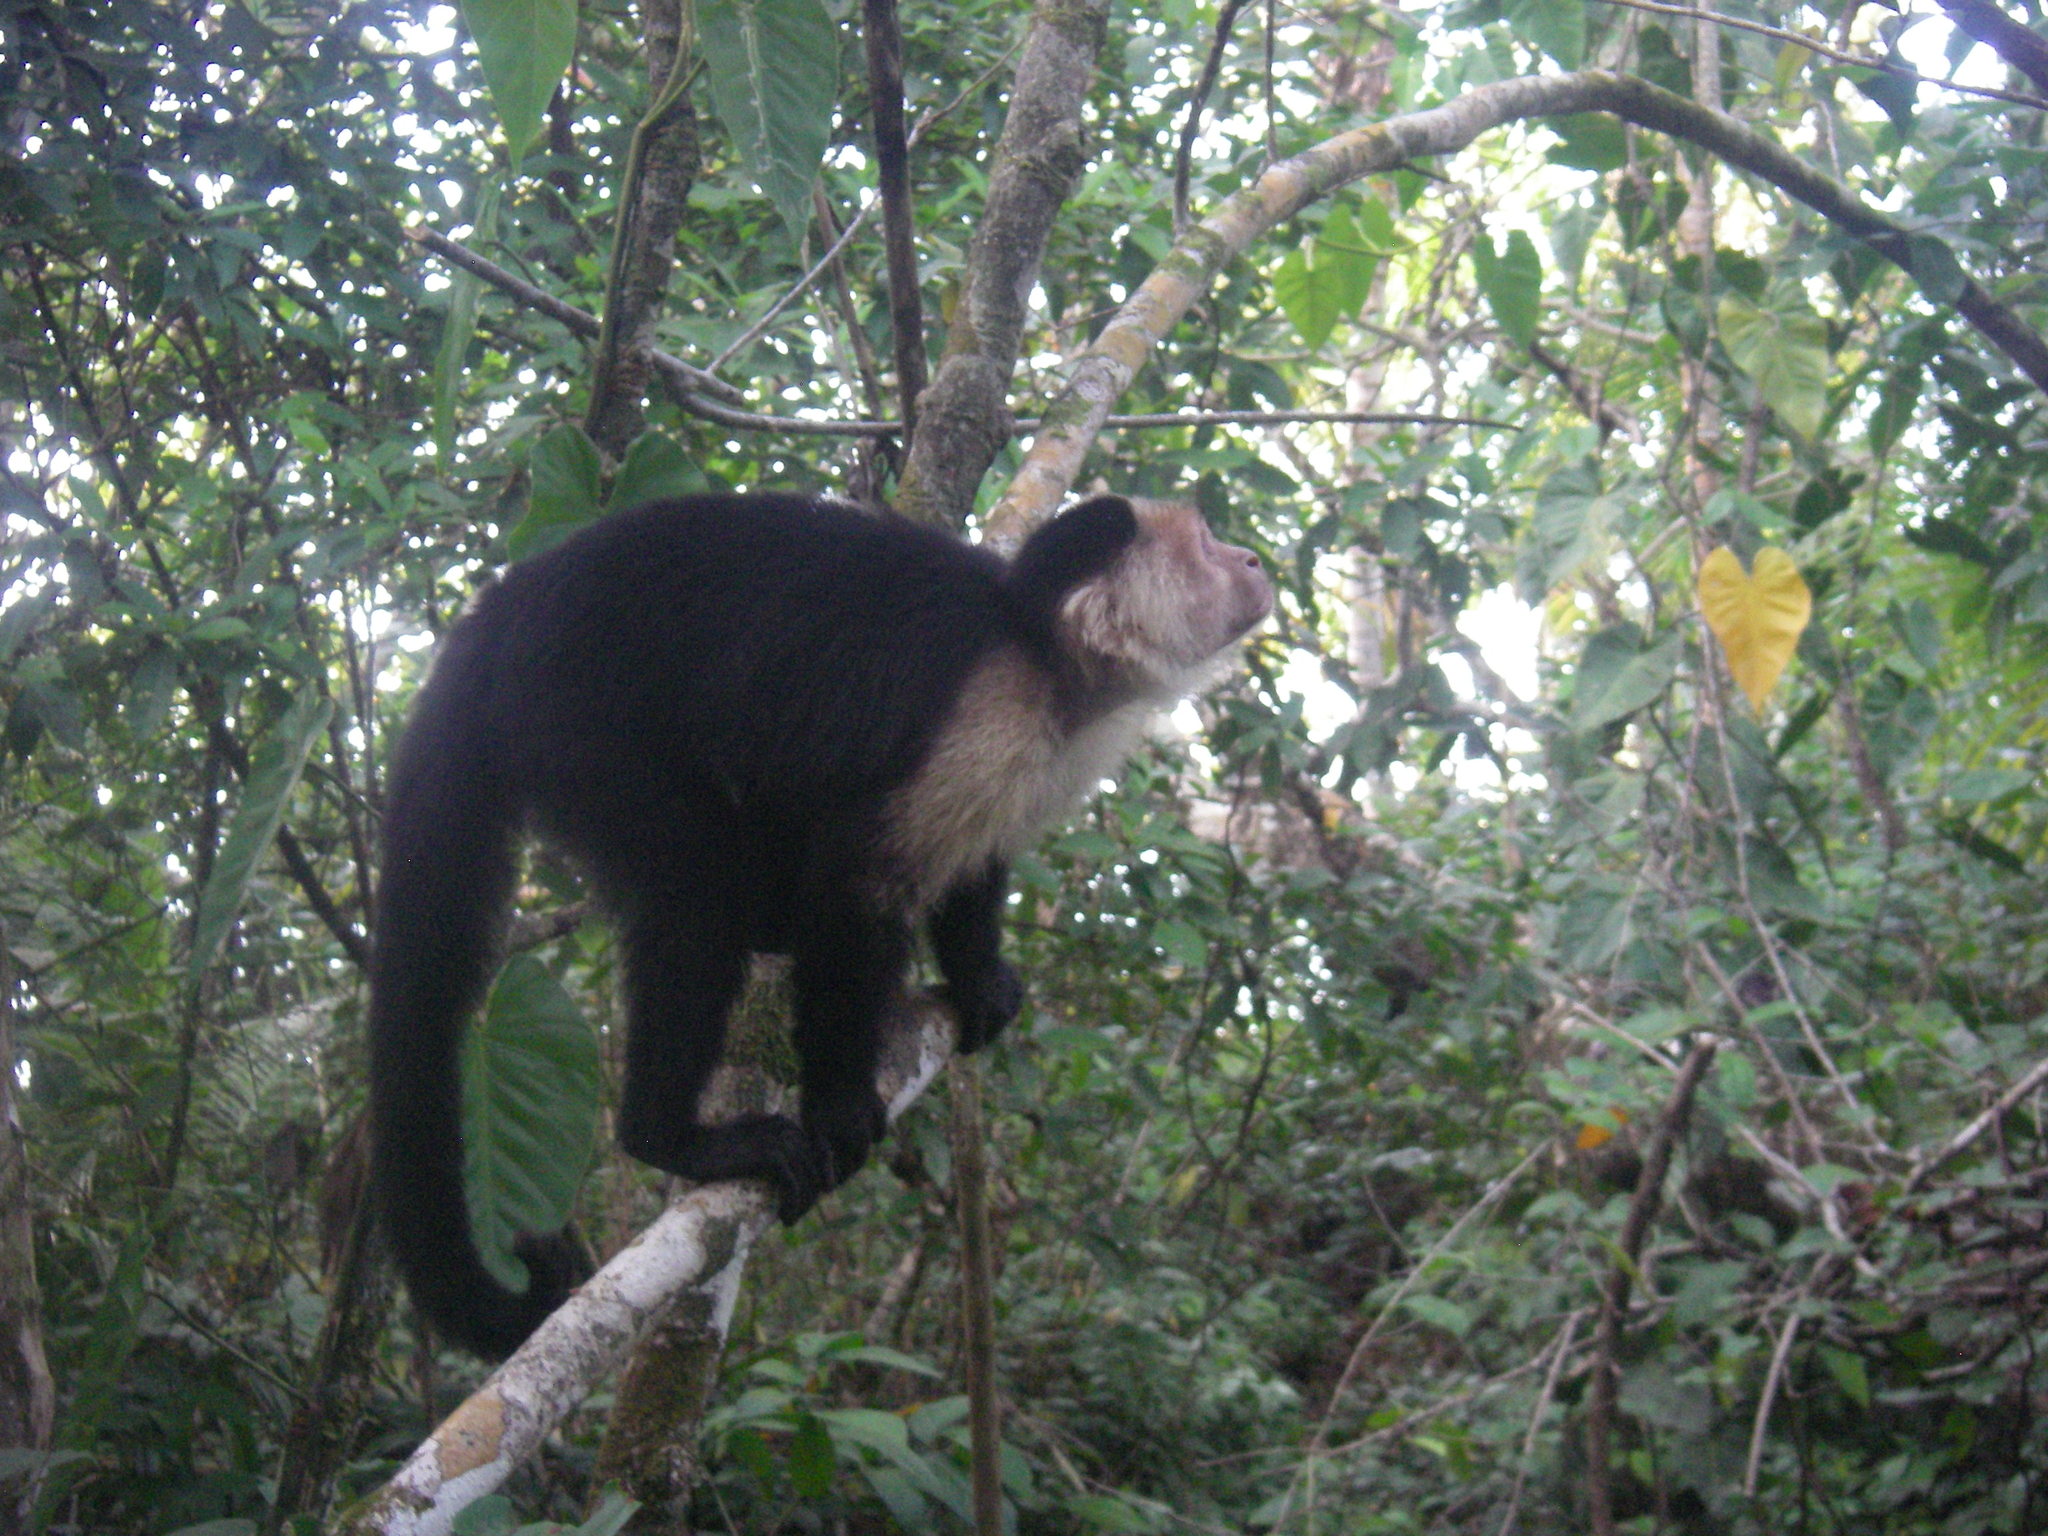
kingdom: Animalia
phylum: Chordata
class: Mammalia
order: Primates
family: Cebidae
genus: Cebus
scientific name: Cebus imitator
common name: Panamanian white-faced capuchin
